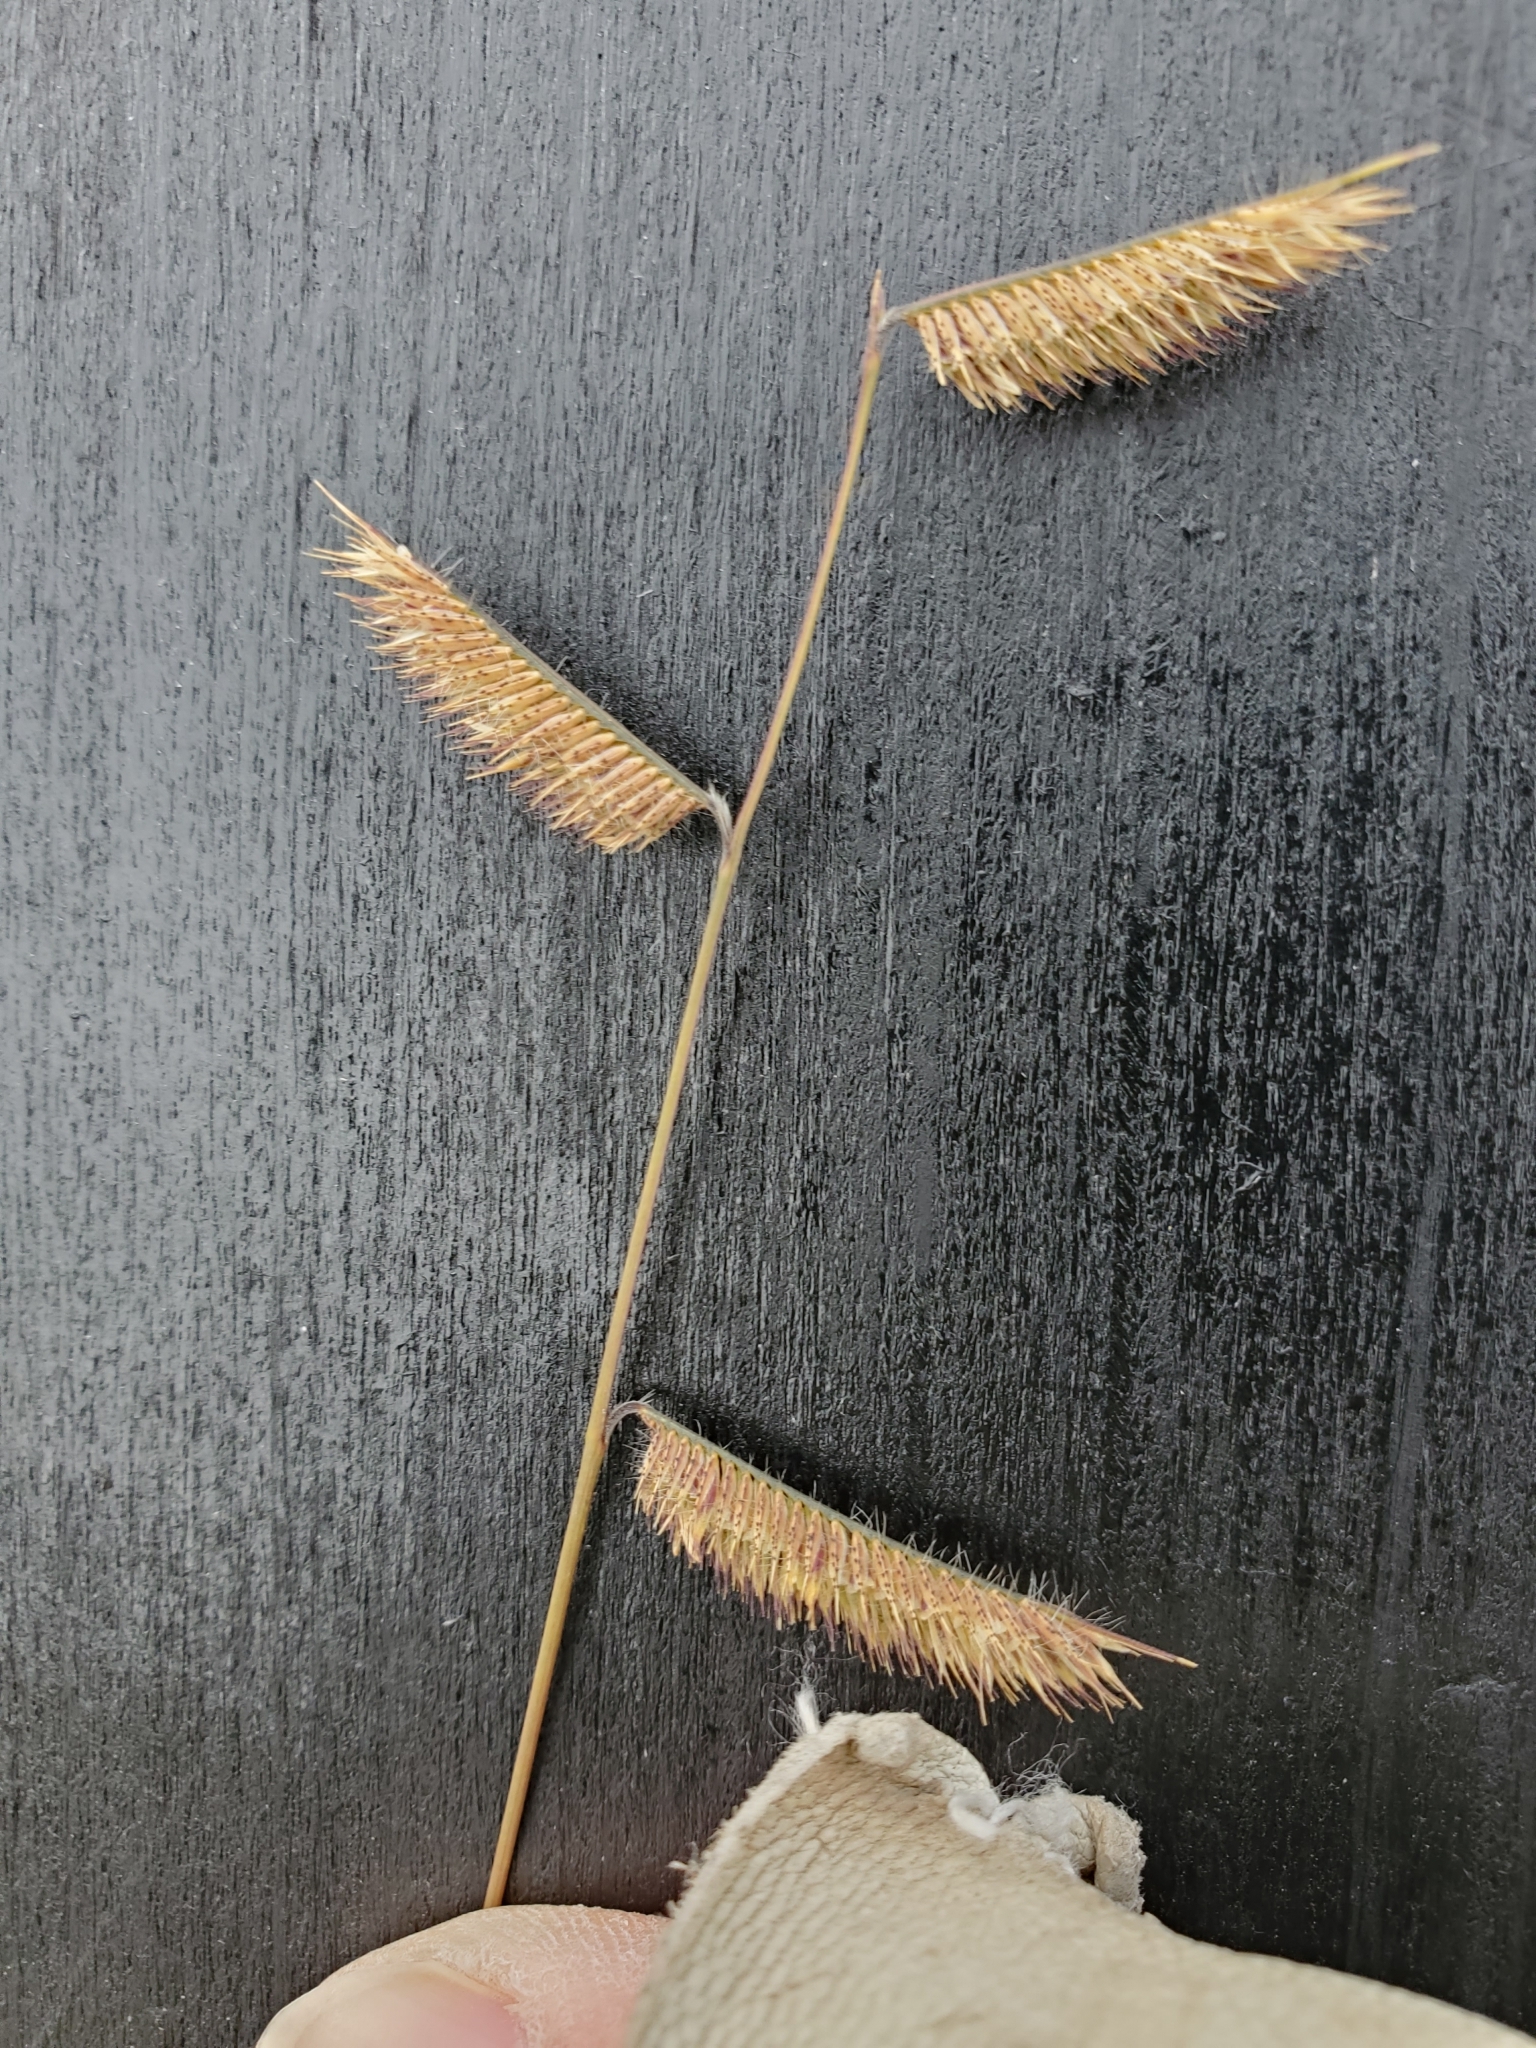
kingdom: Plantae
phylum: Tracheophyta
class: Liliopsida
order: Poales
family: Poaceae
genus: Bouteloua
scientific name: Bouteloua hirsuta
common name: Hairy grama
